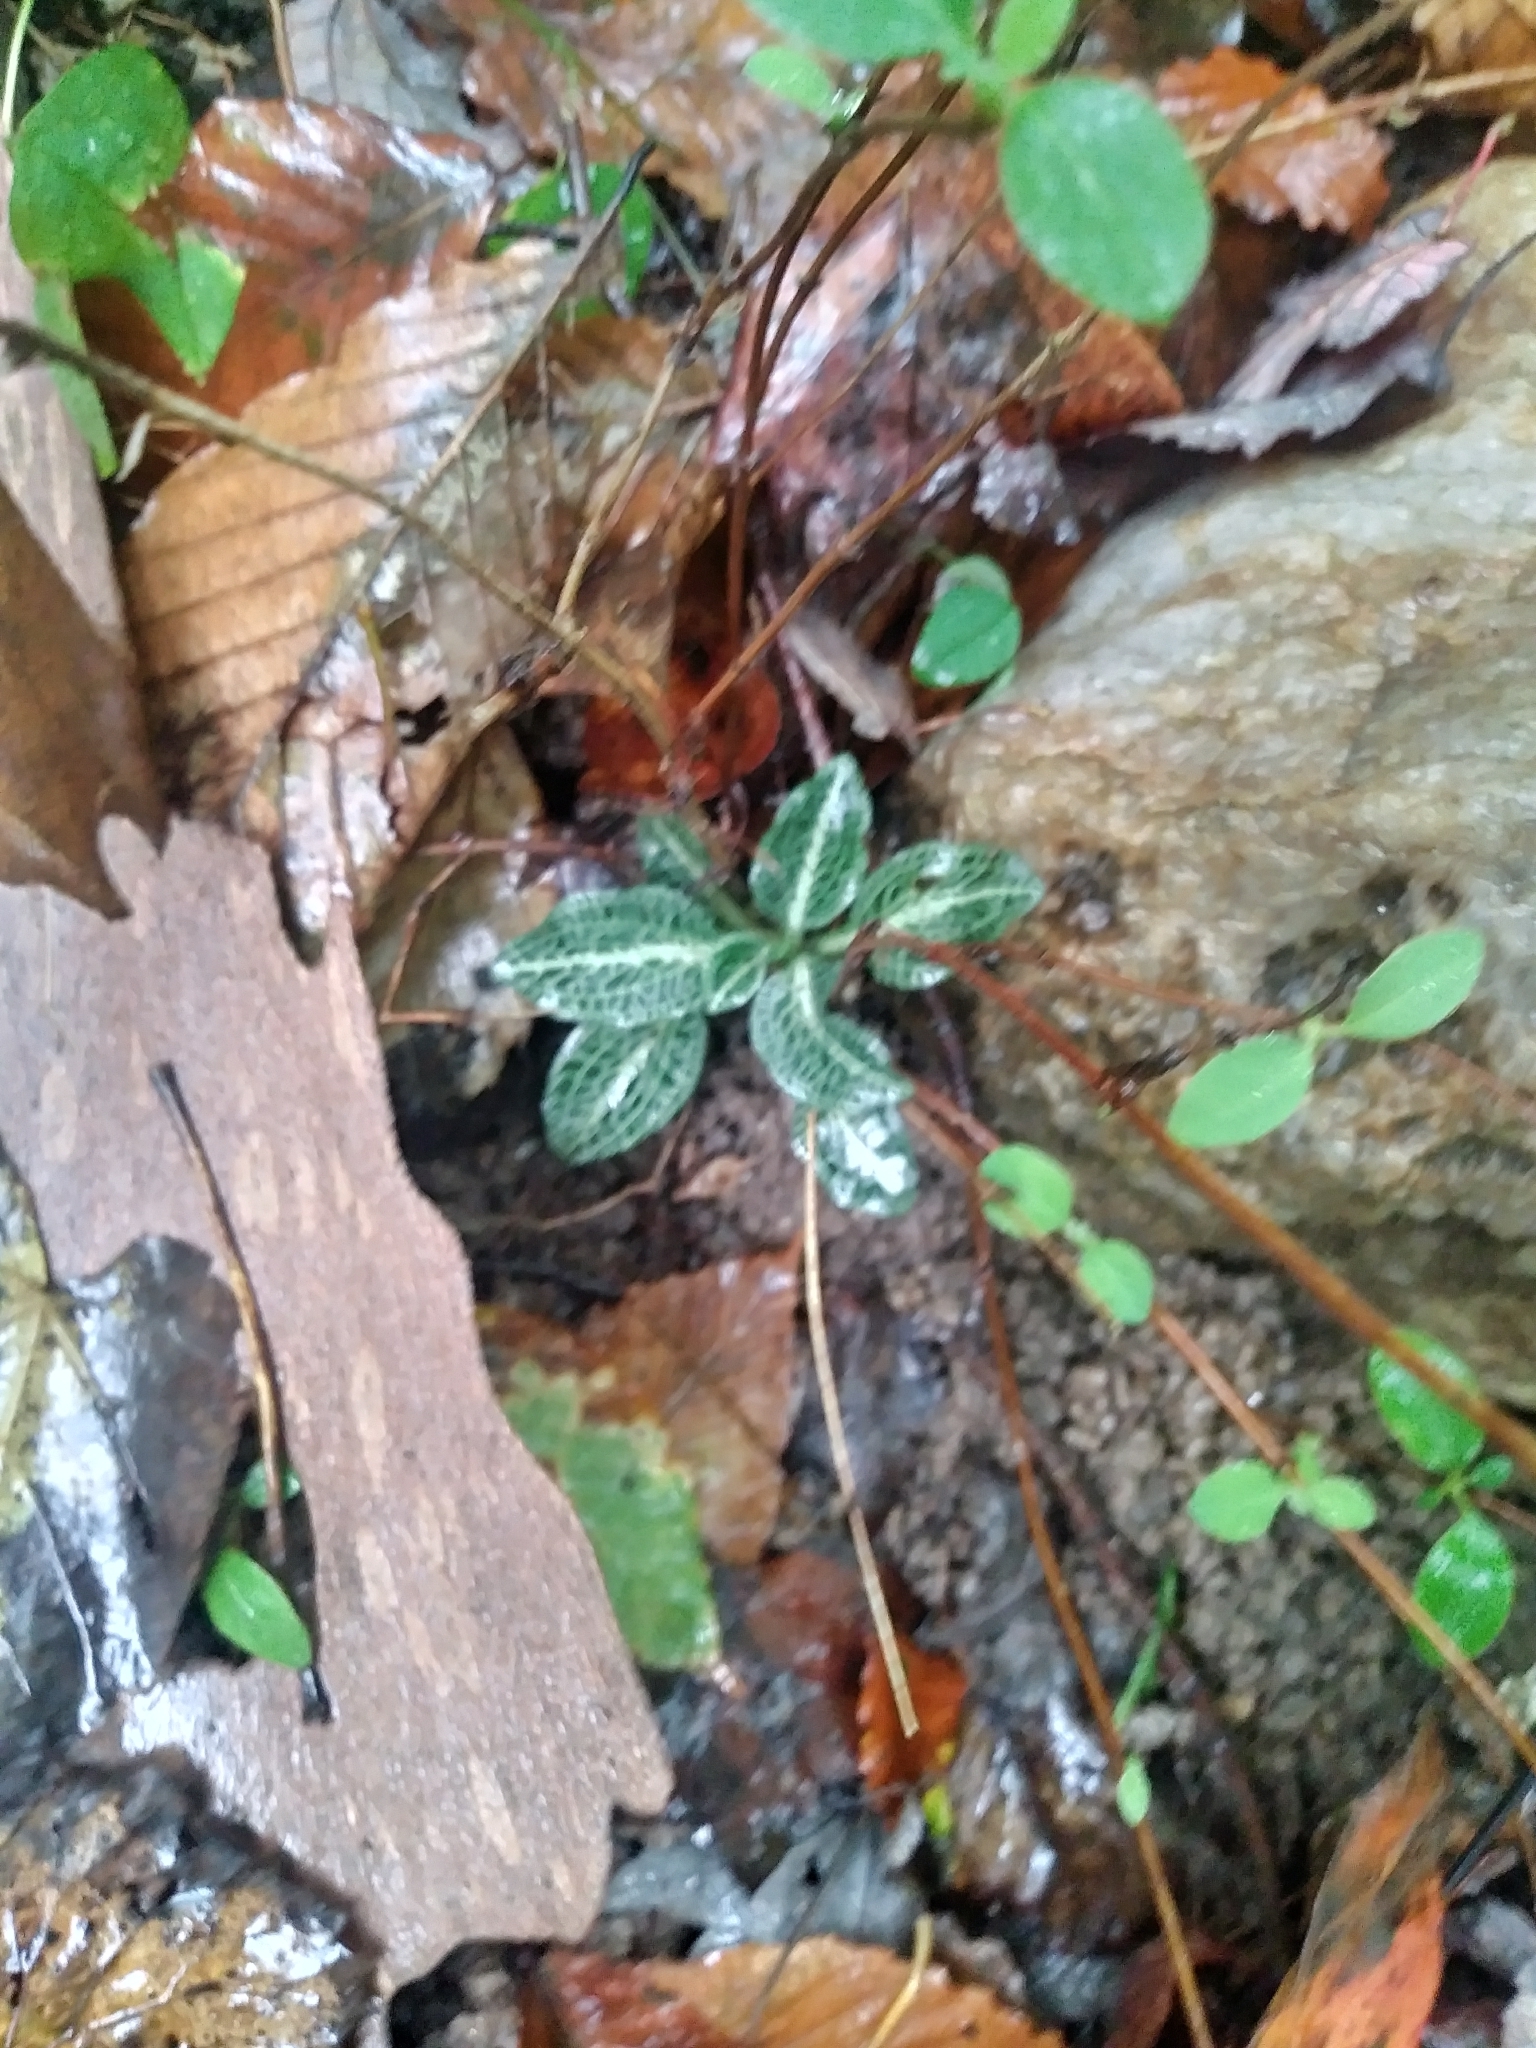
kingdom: Plantae
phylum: Tracheophyta
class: Liliopsida
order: Asparagales
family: Orchidaceae
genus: Goodyera
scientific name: Goodyera pubescens
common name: Downy rattlesnake-plantain
